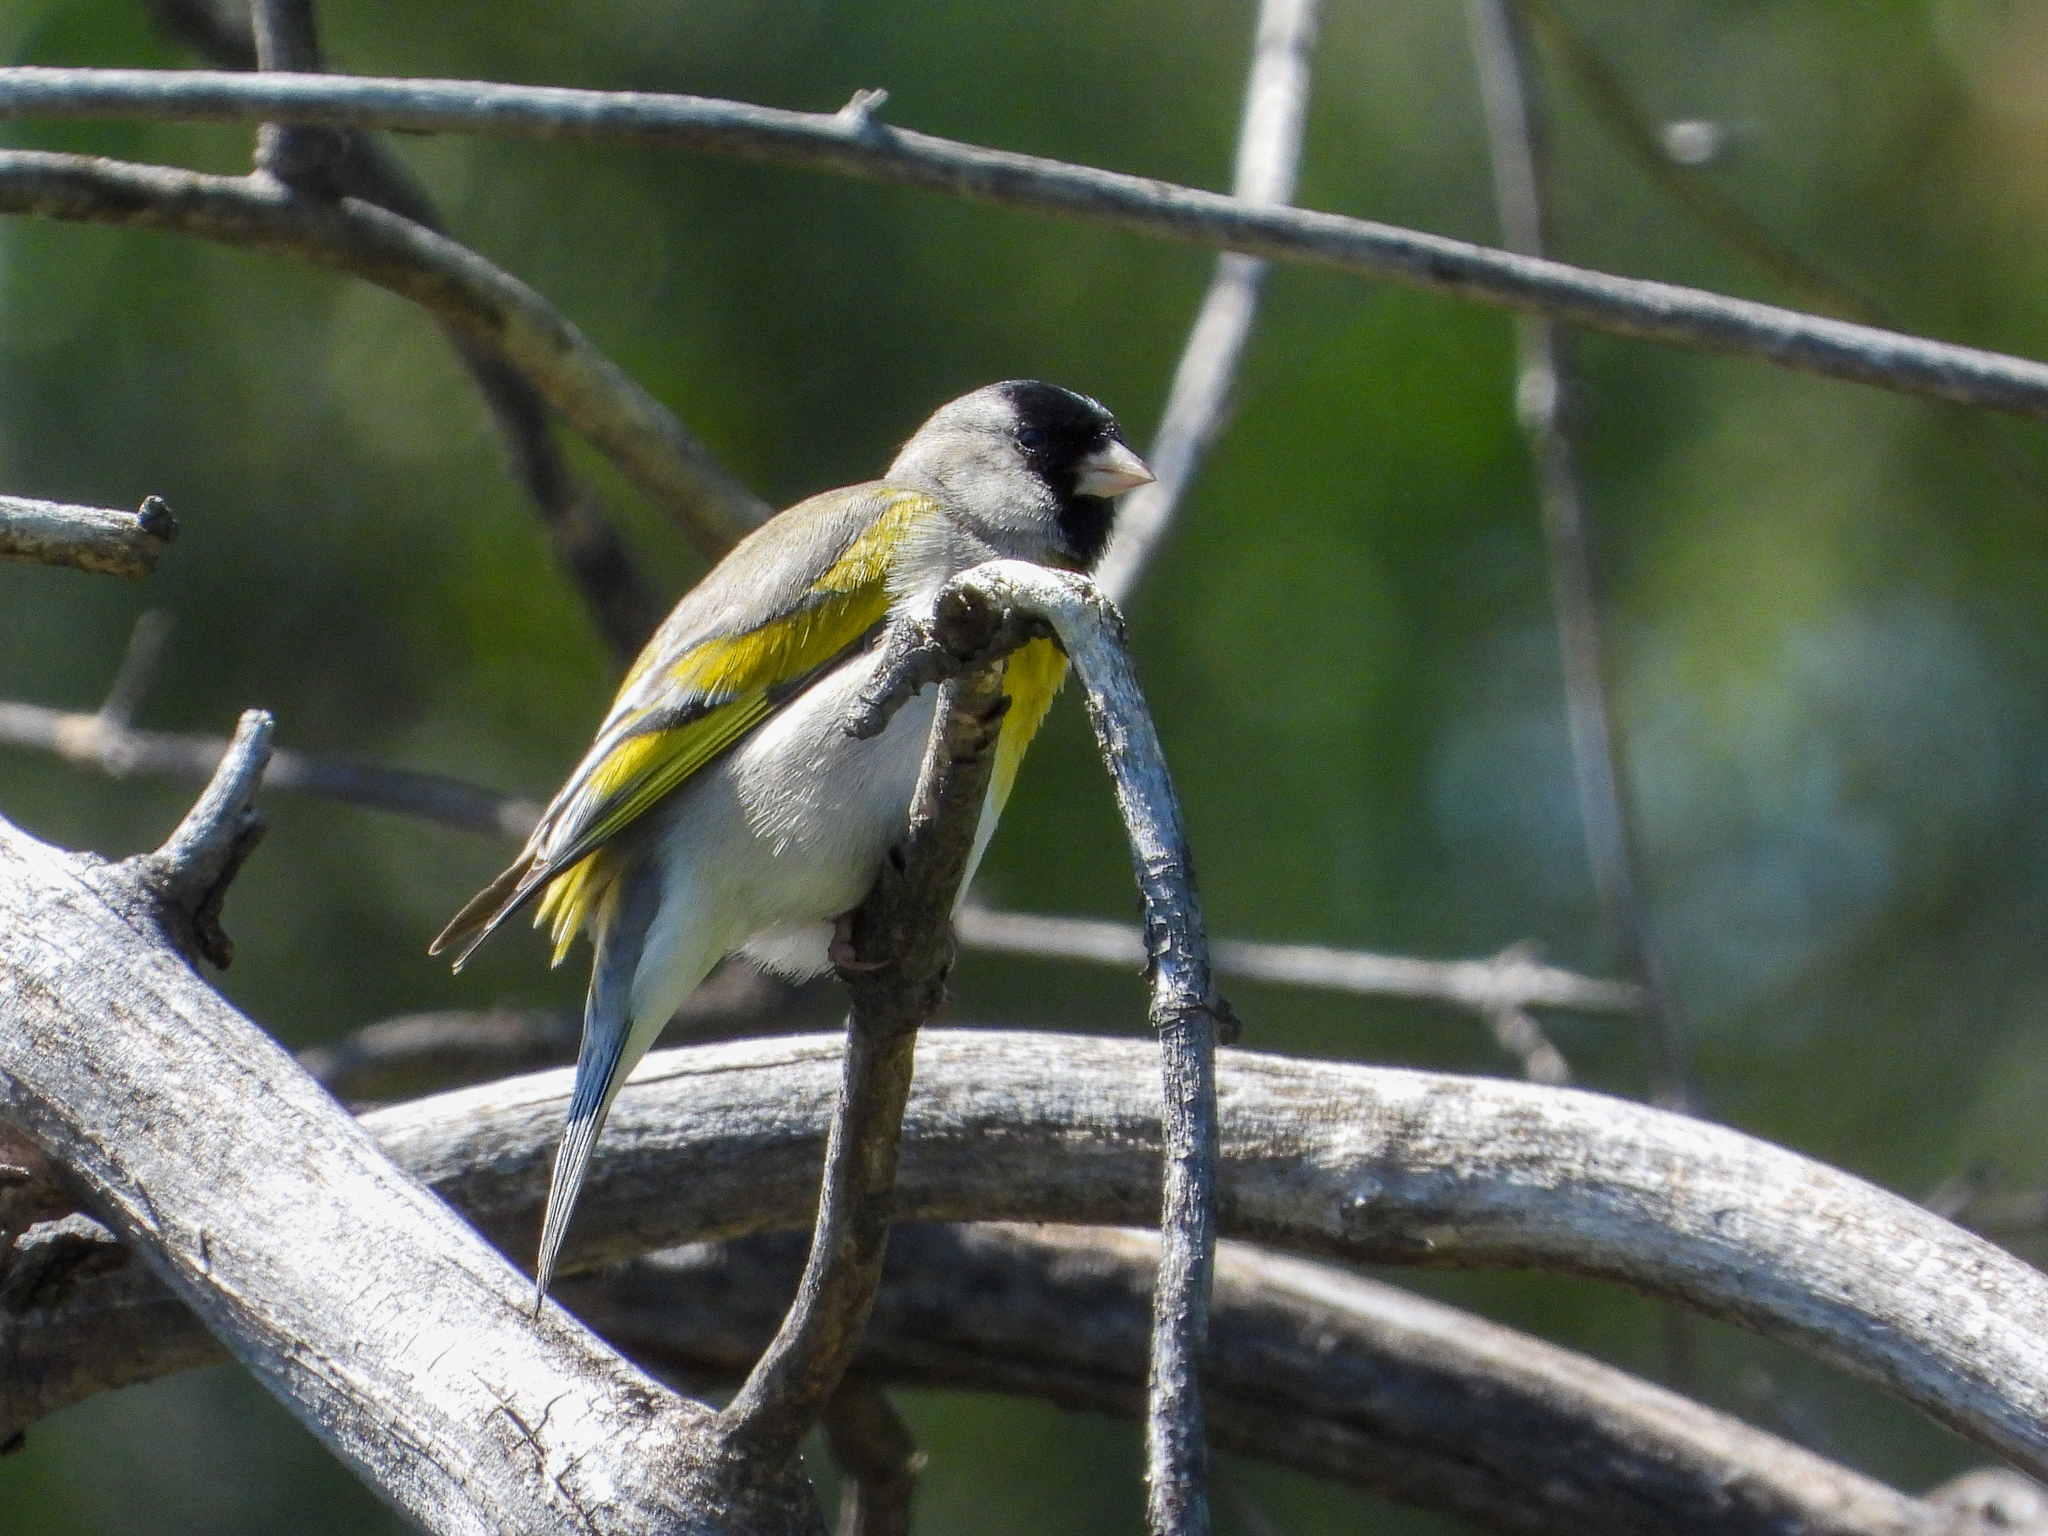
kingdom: Animalia
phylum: Chordata
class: Aves
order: Passeriformes
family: Fringillidae
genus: Spinus
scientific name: Spinus lawrencei
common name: Lawrence's goldfinch
